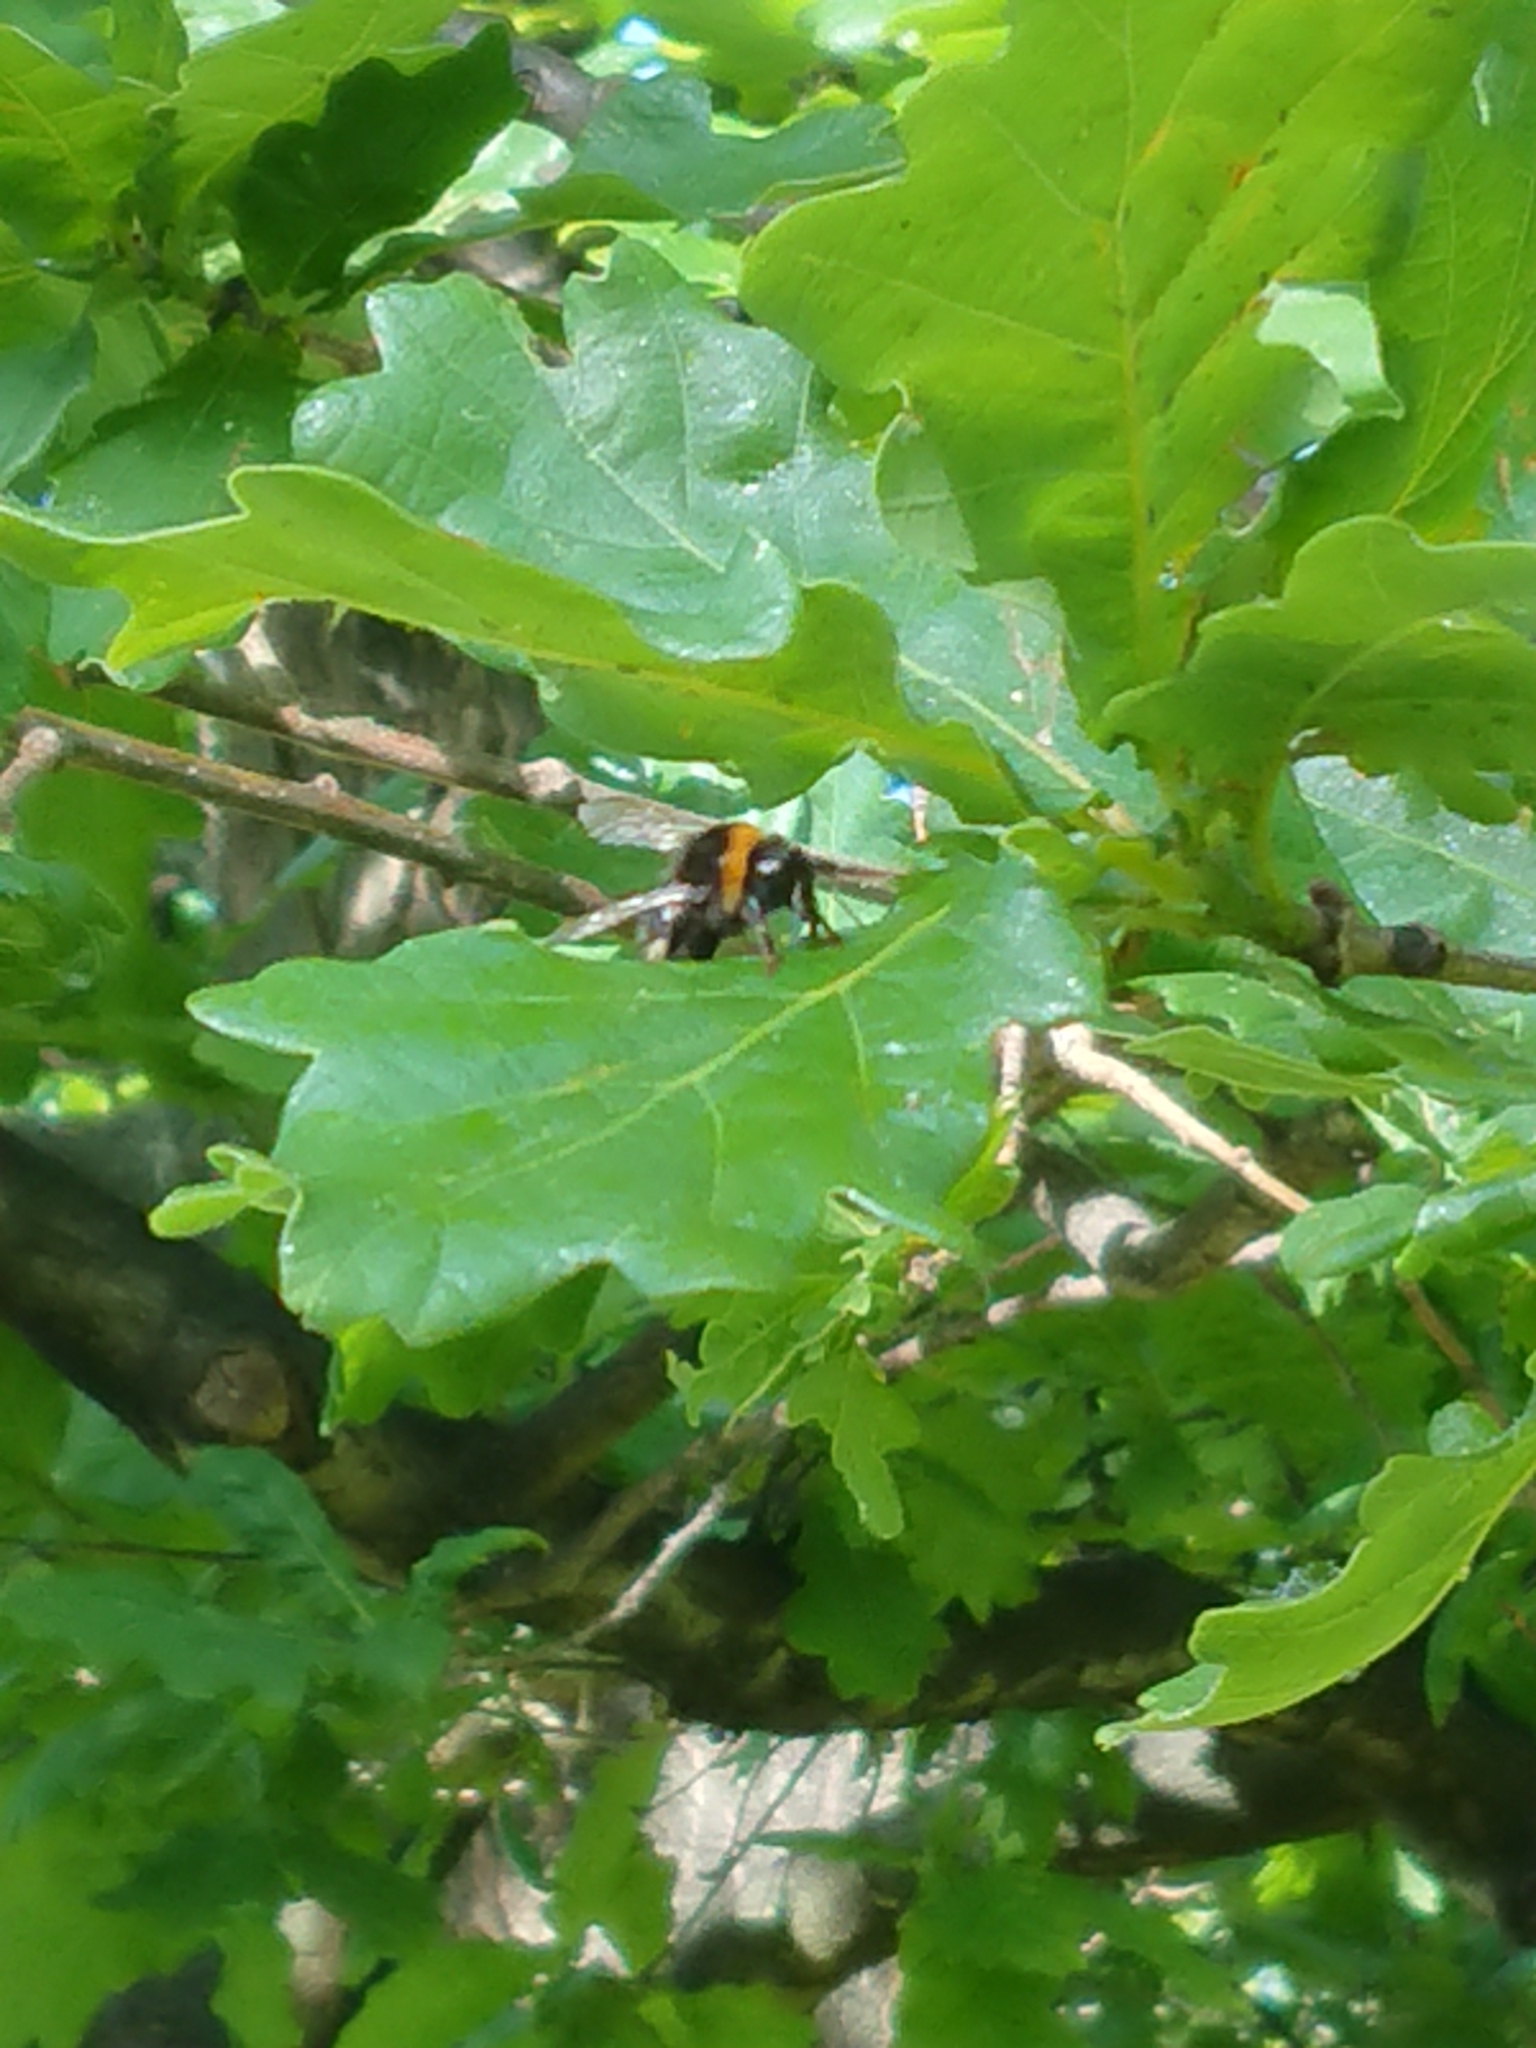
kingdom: Animalia
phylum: Arthropoda
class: Insecta
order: Hymenoptera
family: Apidae
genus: Bombus
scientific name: Bombus terrestris
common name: Buff-tailed bumblebee
